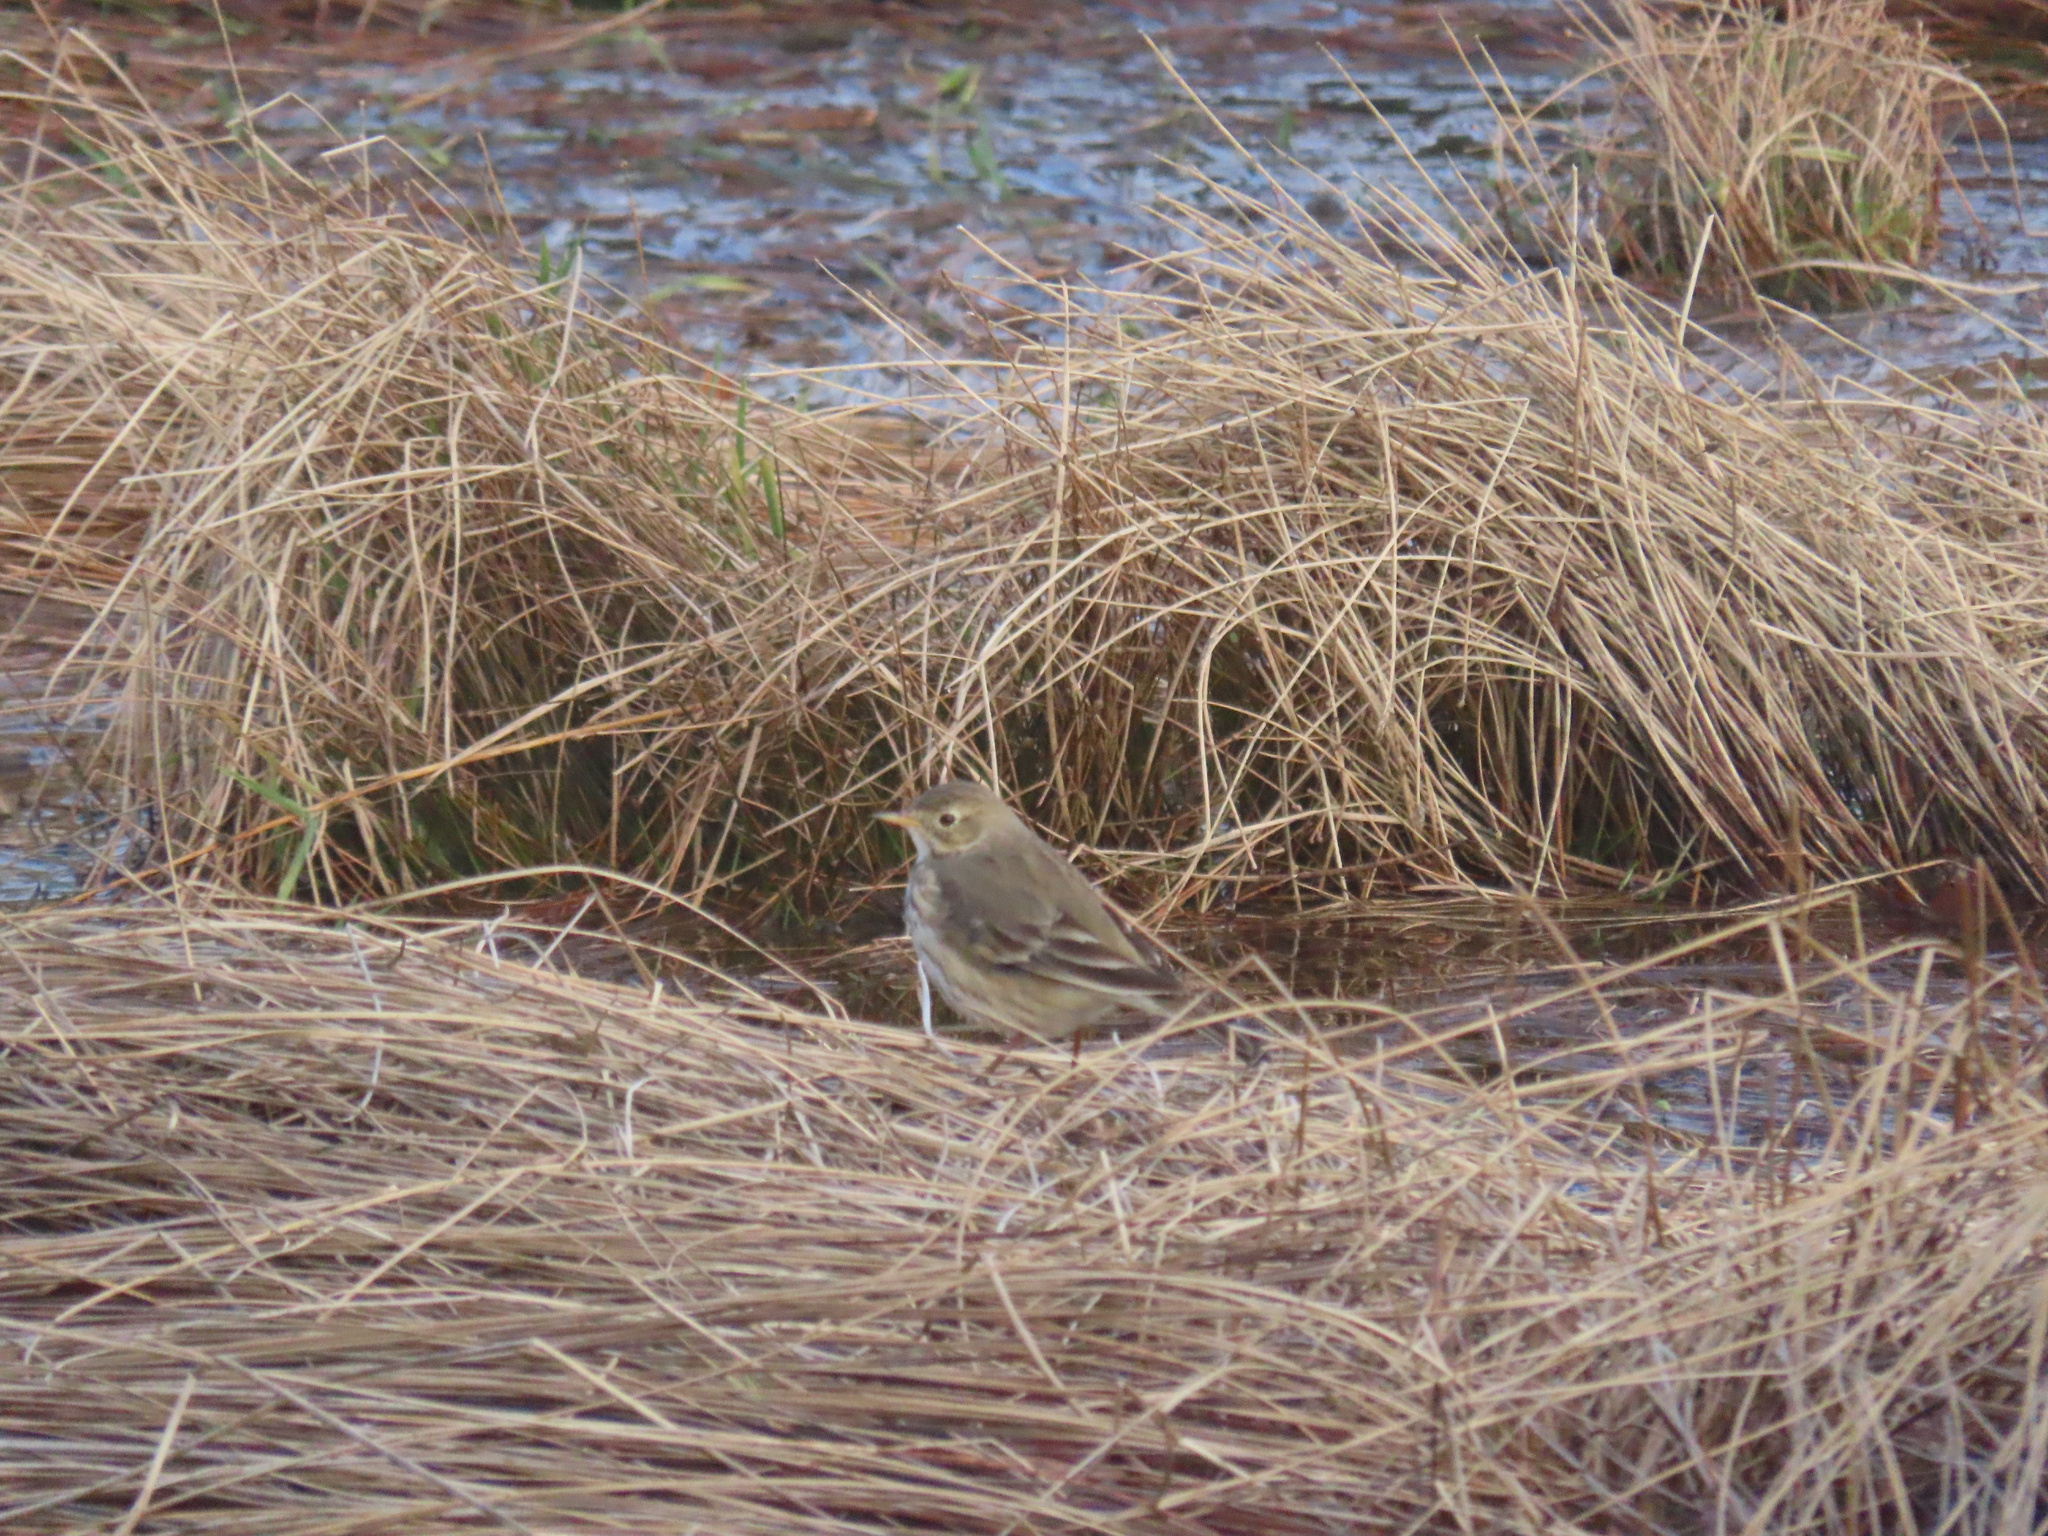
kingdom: Animalia
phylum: Chordata
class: Aves
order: Passeriformes
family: Motacillidae
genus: Anthus
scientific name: Anthus rubescens
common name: Buff-bellied pipit
